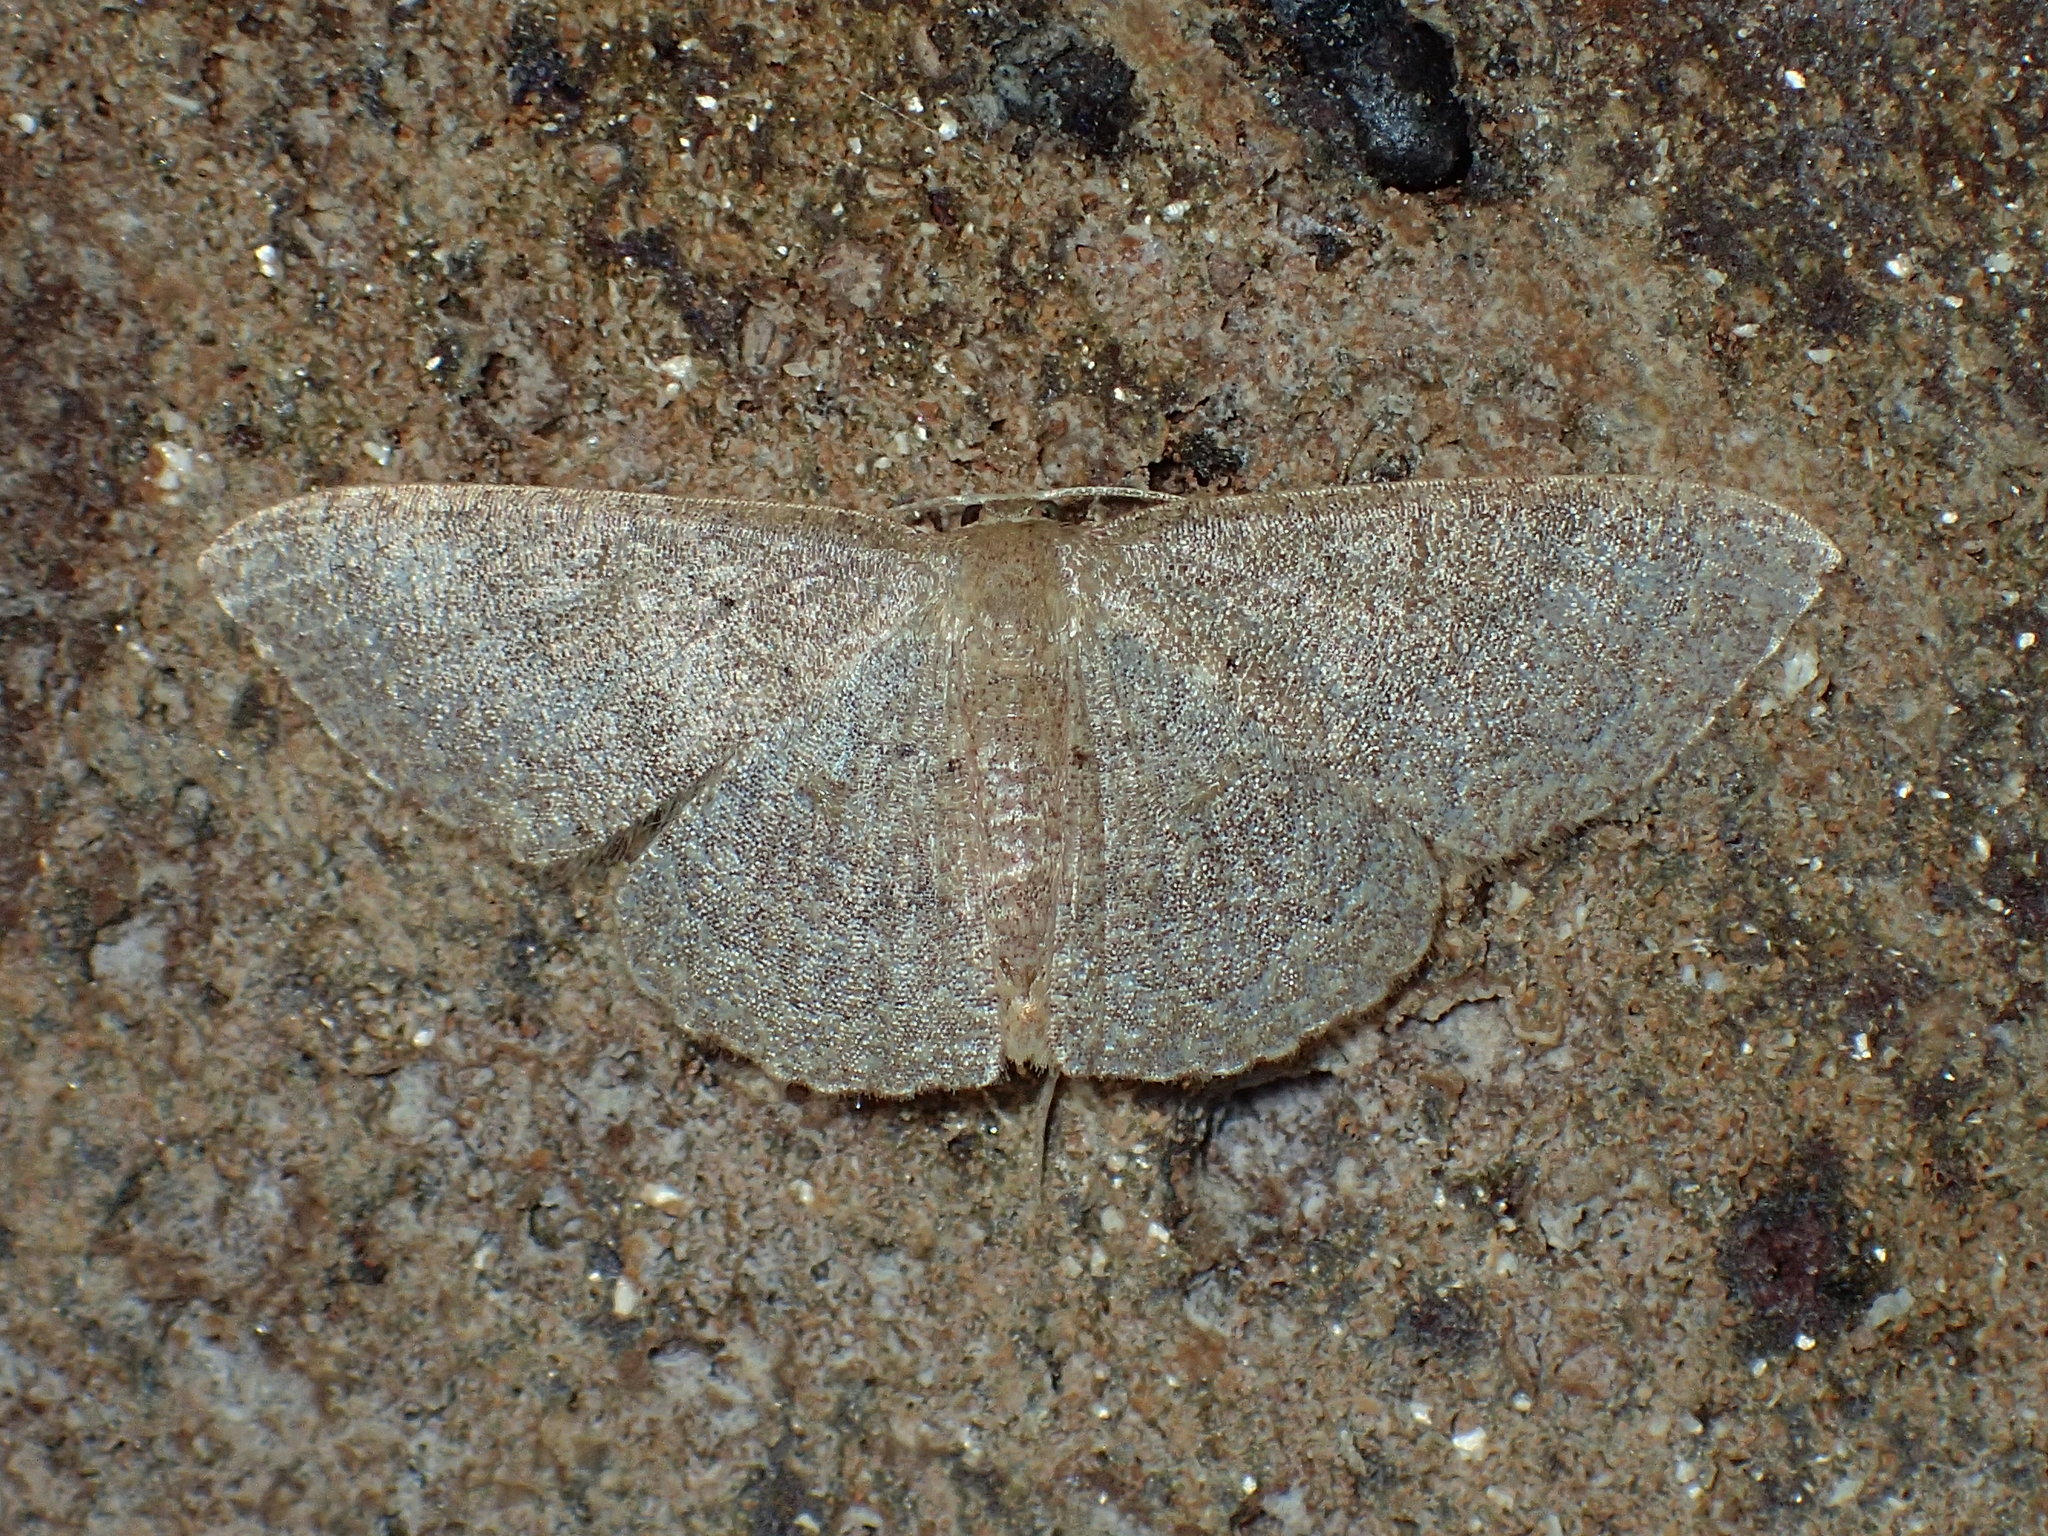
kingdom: Animalia
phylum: Arthropoda
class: Insecta
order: Lepidoptera
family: Geometridae
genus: Pleuroprucha
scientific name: Pleuroprucha insulsaria
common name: Common tan wave
